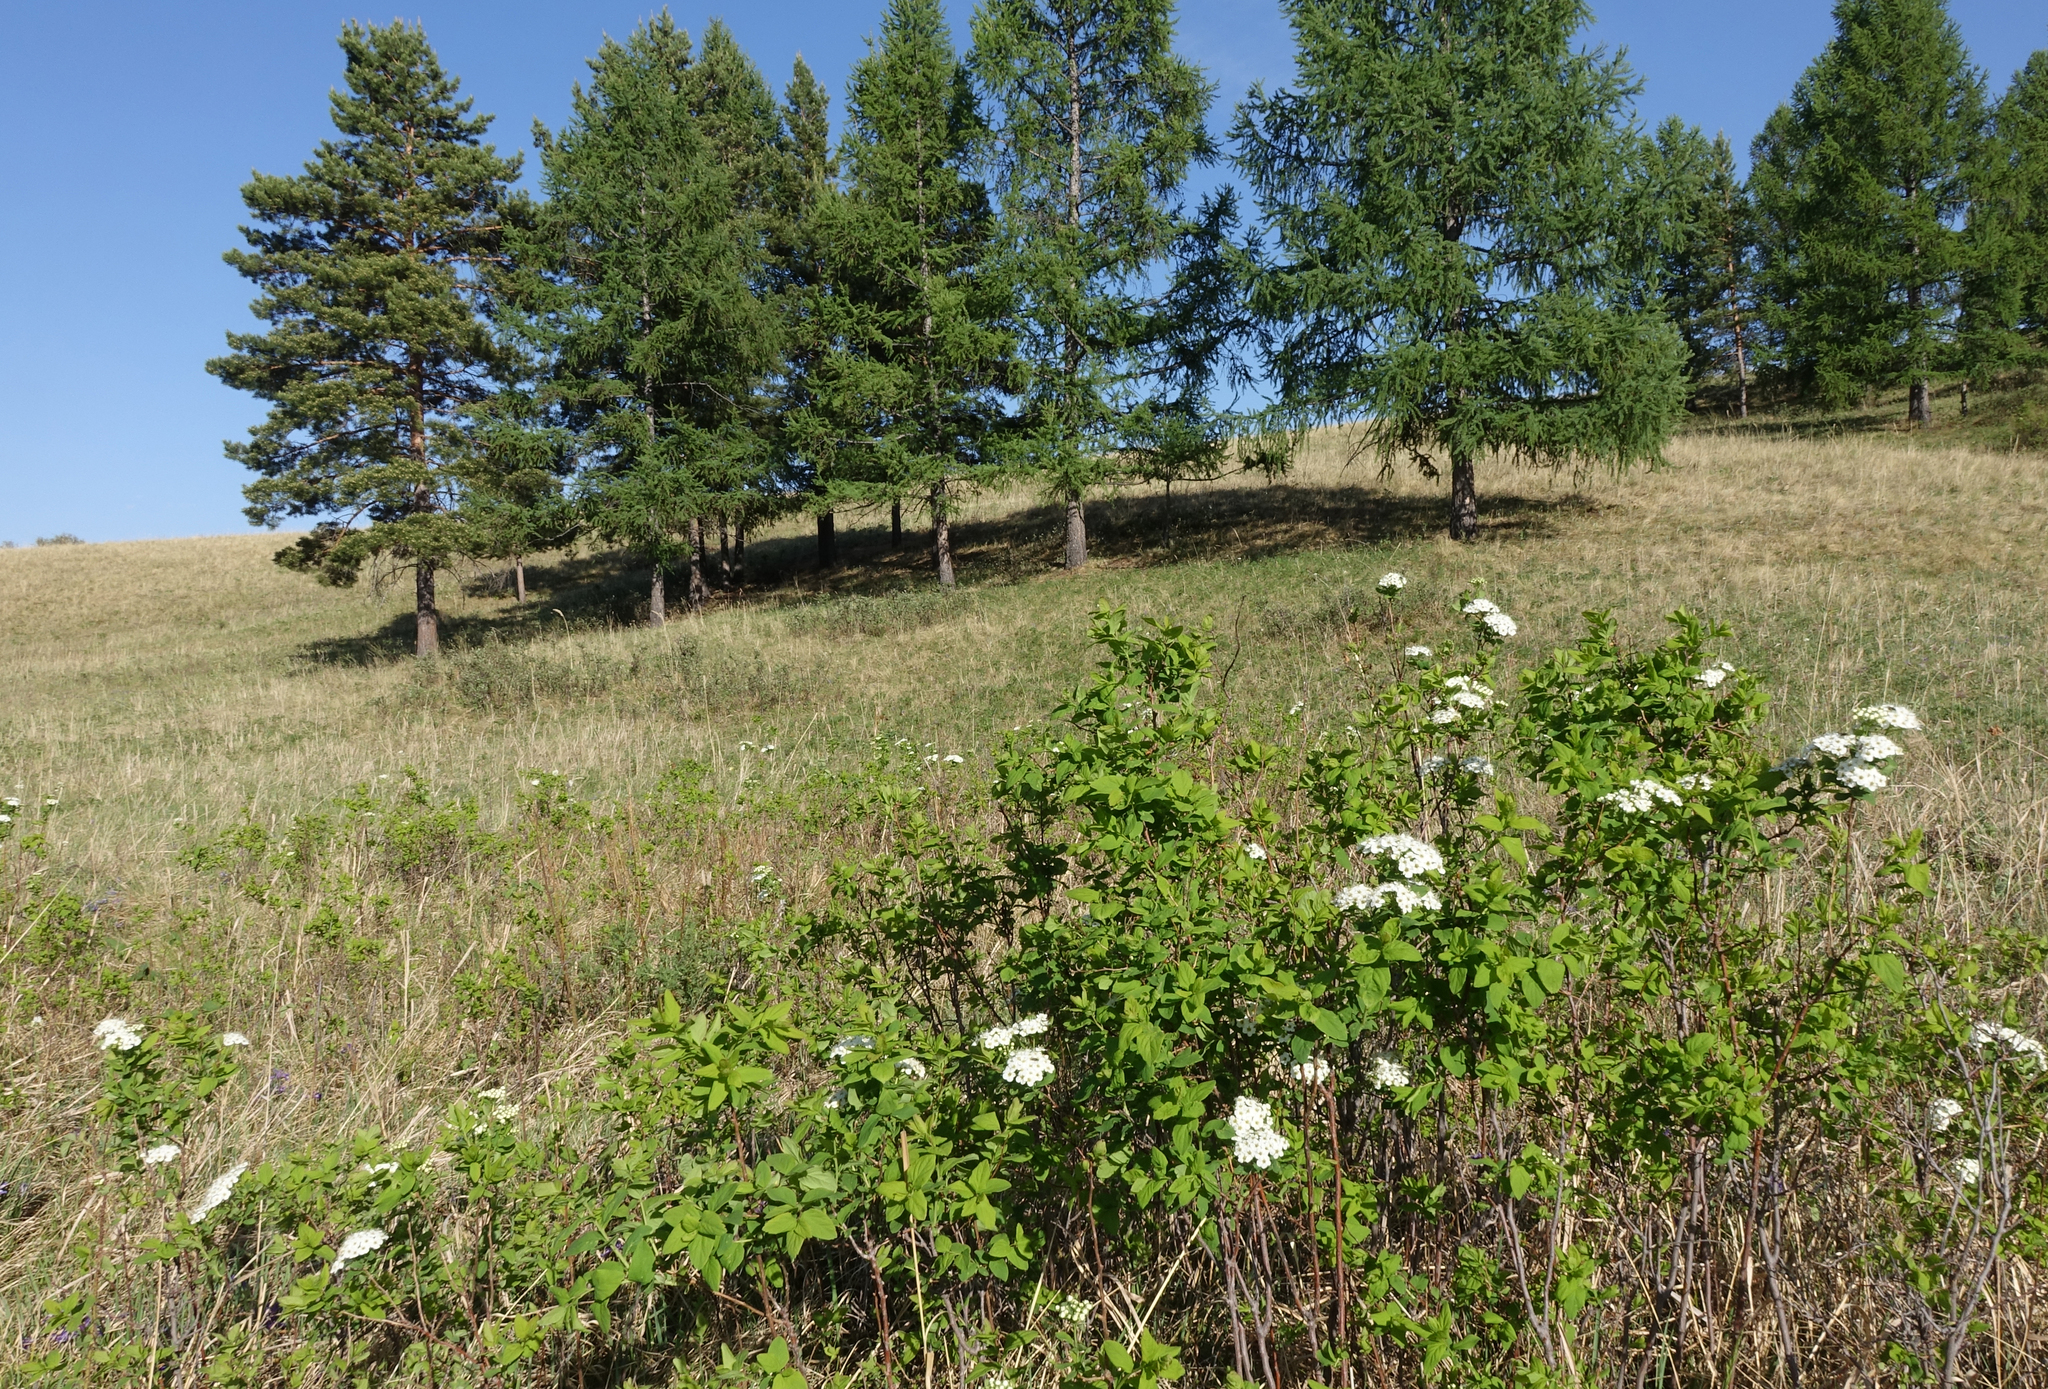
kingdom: Plantae
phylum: Tracheophyta
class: Pinopsida
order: Pinales
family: Pinaceae
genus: Larix
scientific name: Larix sibirica
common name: Siberian larch
